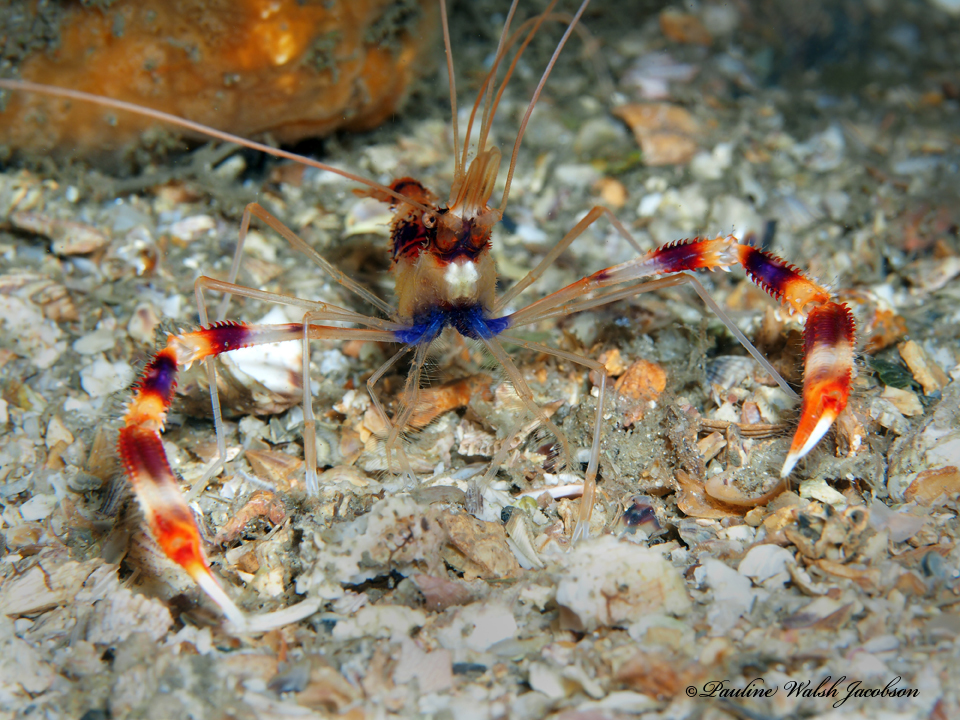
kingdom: Animalia
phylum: Arthropoda
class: Malacostraca
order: Decapoda
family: Stenopodidae
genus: Stenopus
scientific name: Stenopus hispidus
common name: Banded coral shrimp
